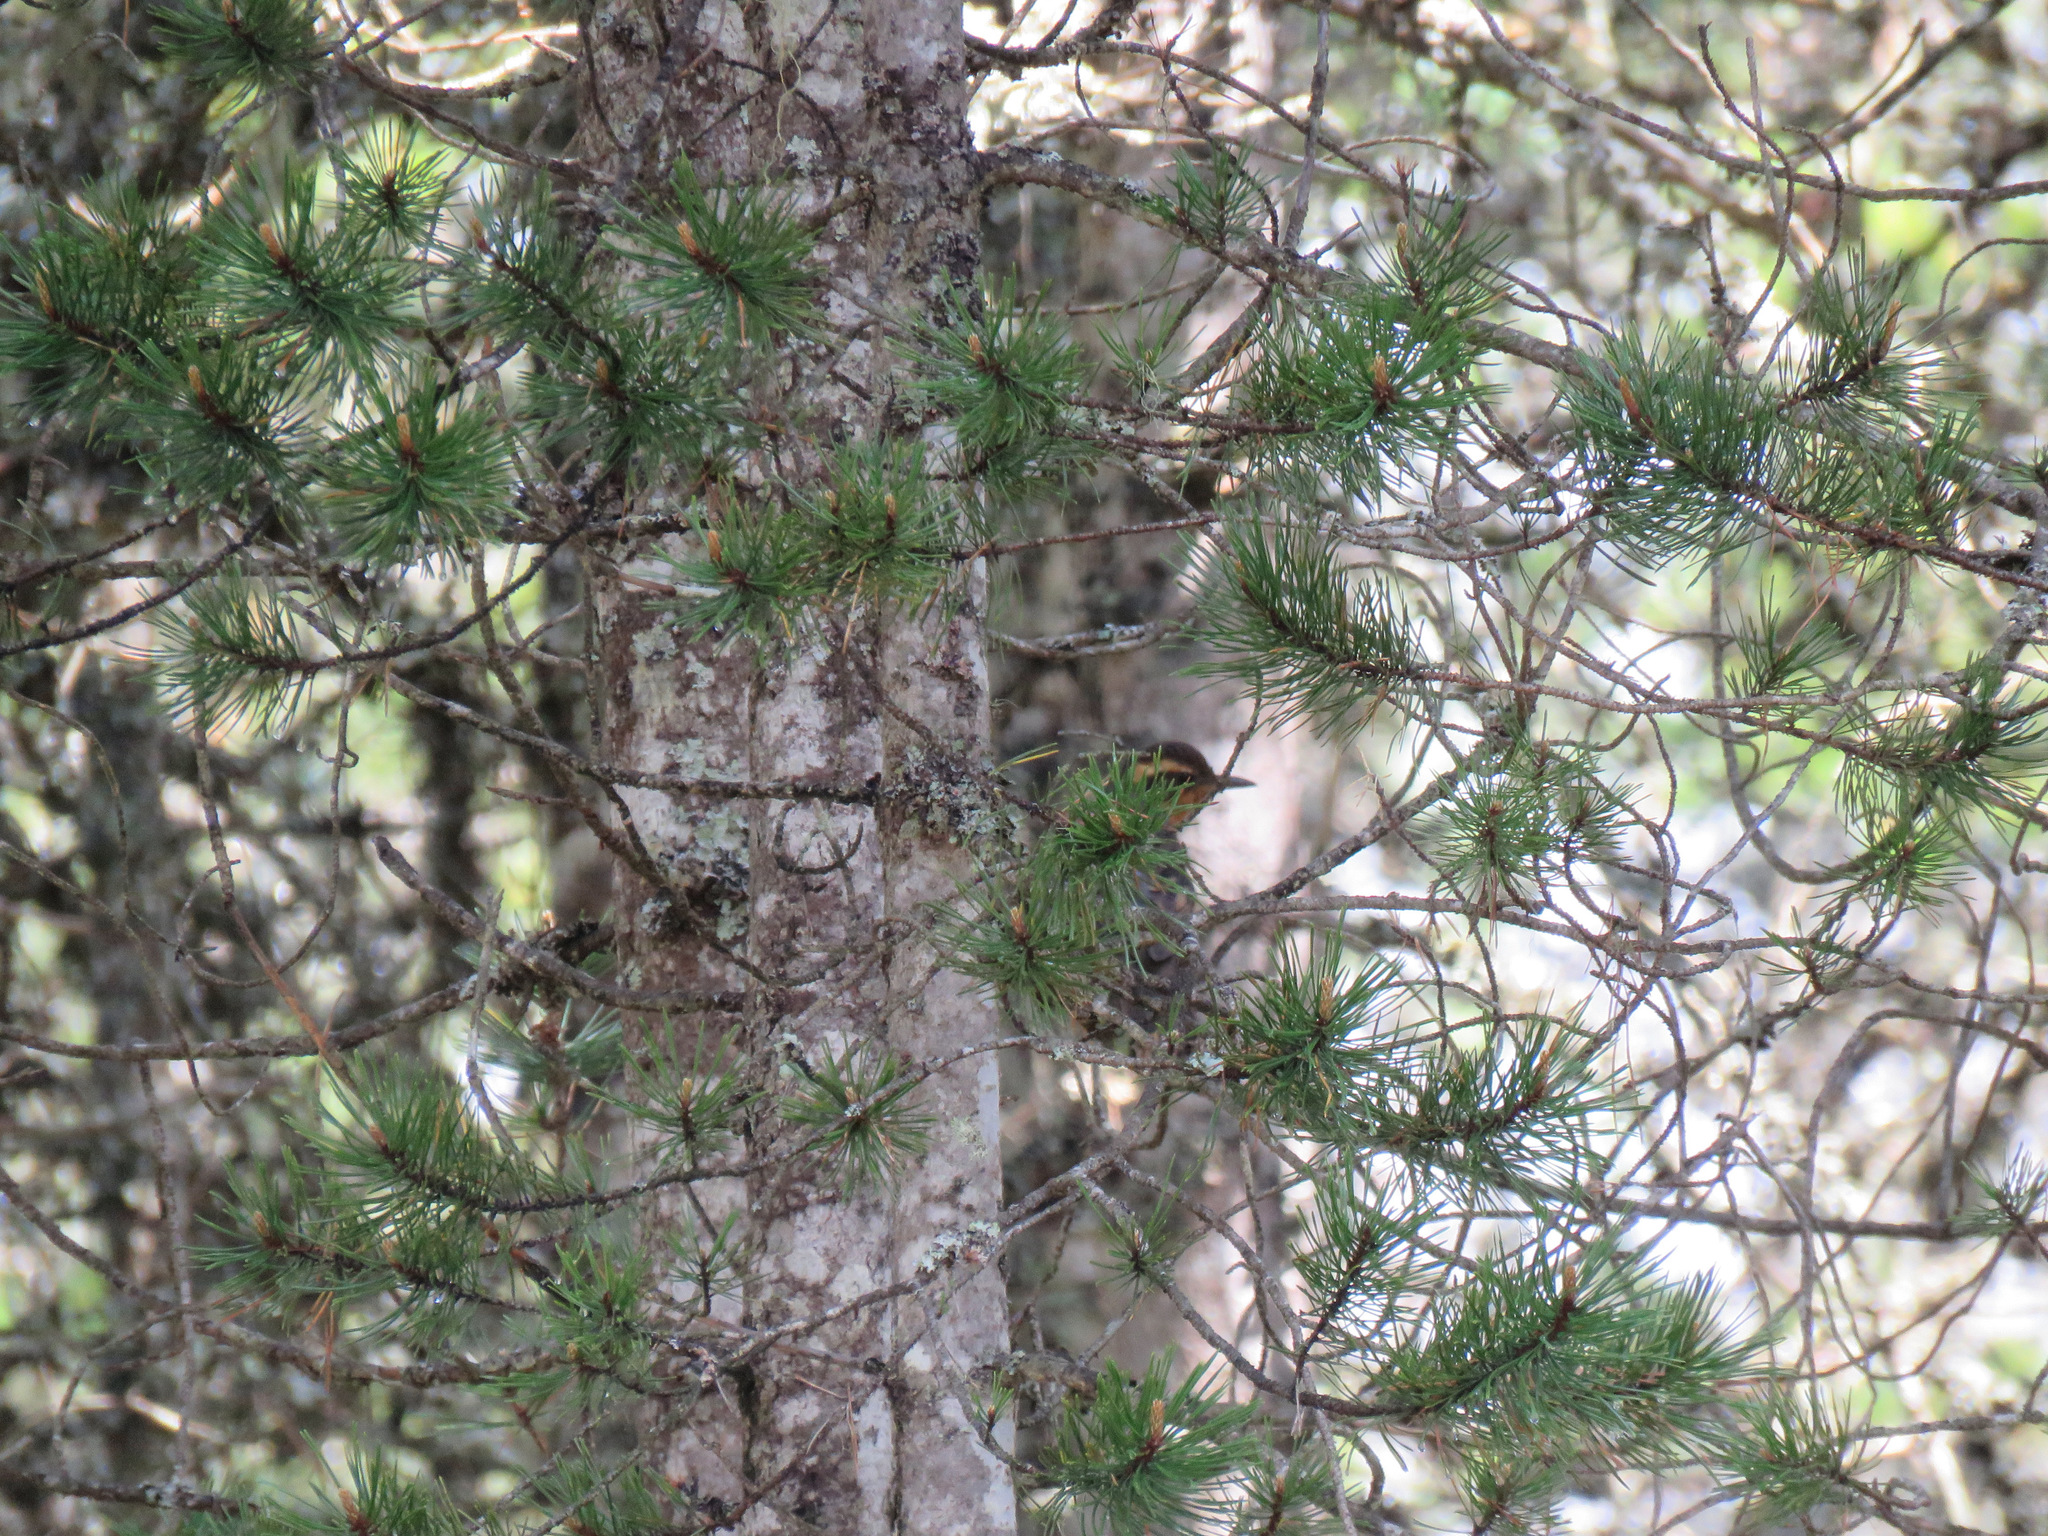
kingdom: Animalia
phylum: Chordata
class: Aves
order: Passeriformes
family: Turdidae
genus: Ixoreus
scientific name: Ixoreus naevius
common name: Varied thrush
